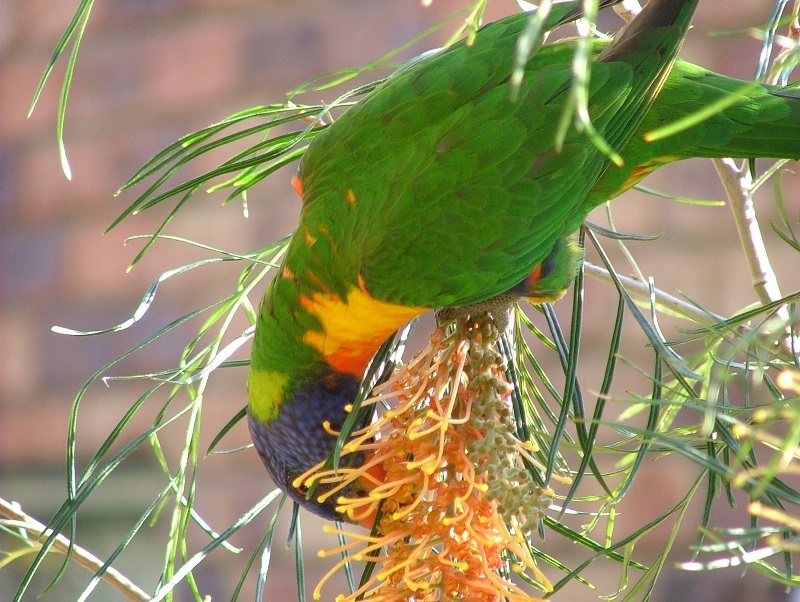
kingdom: Animalia
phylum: Chordata
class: Aves
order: Psittaciformes
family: Psittacidae
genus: Trichoglossus
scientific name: Trichoglossus haematodus
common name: Coconut lorikeet
